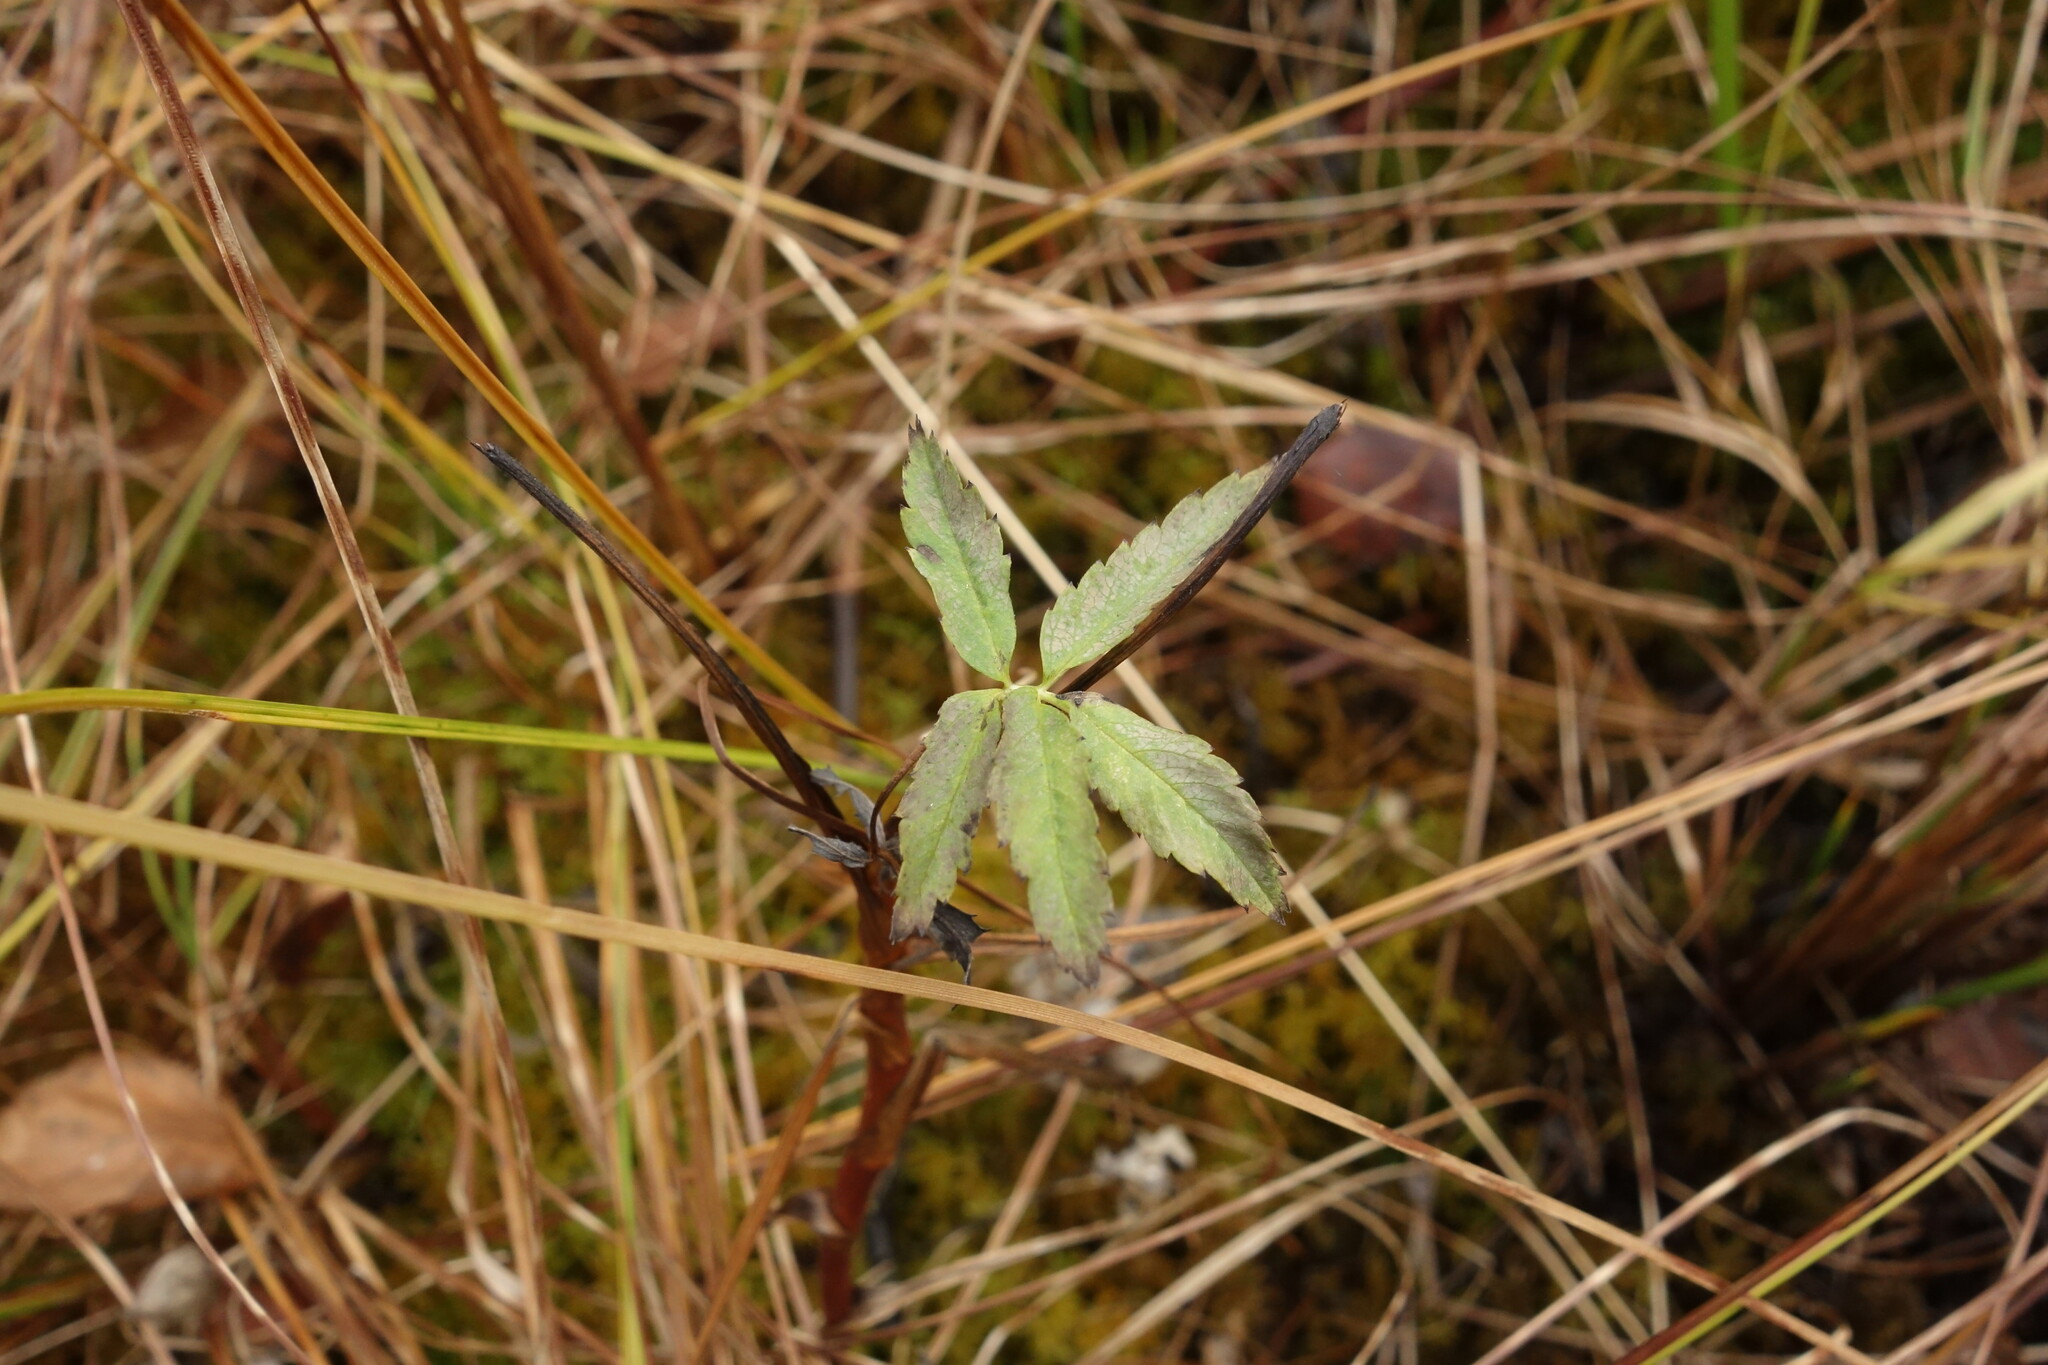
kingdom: Plantae
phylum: Tracheophyta
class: Magnoliopsida
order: Rosales
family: Rosaceae
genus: Comarum
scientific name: Comarum palustre
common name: Marsh cinquefoil
